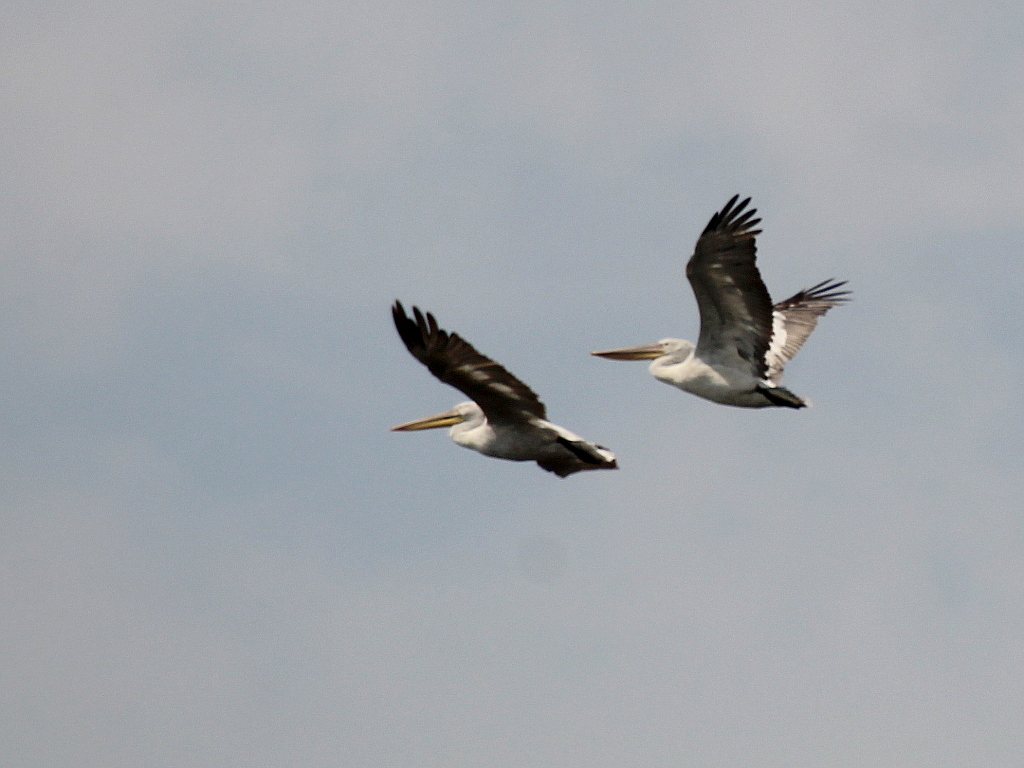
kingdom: Animalia
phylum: Chordata
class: Aves
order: Pelecaniformes
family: Pelecanidae
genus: Pelecanus
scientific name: Pelecanus crispus
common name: Dalmatian pelican
